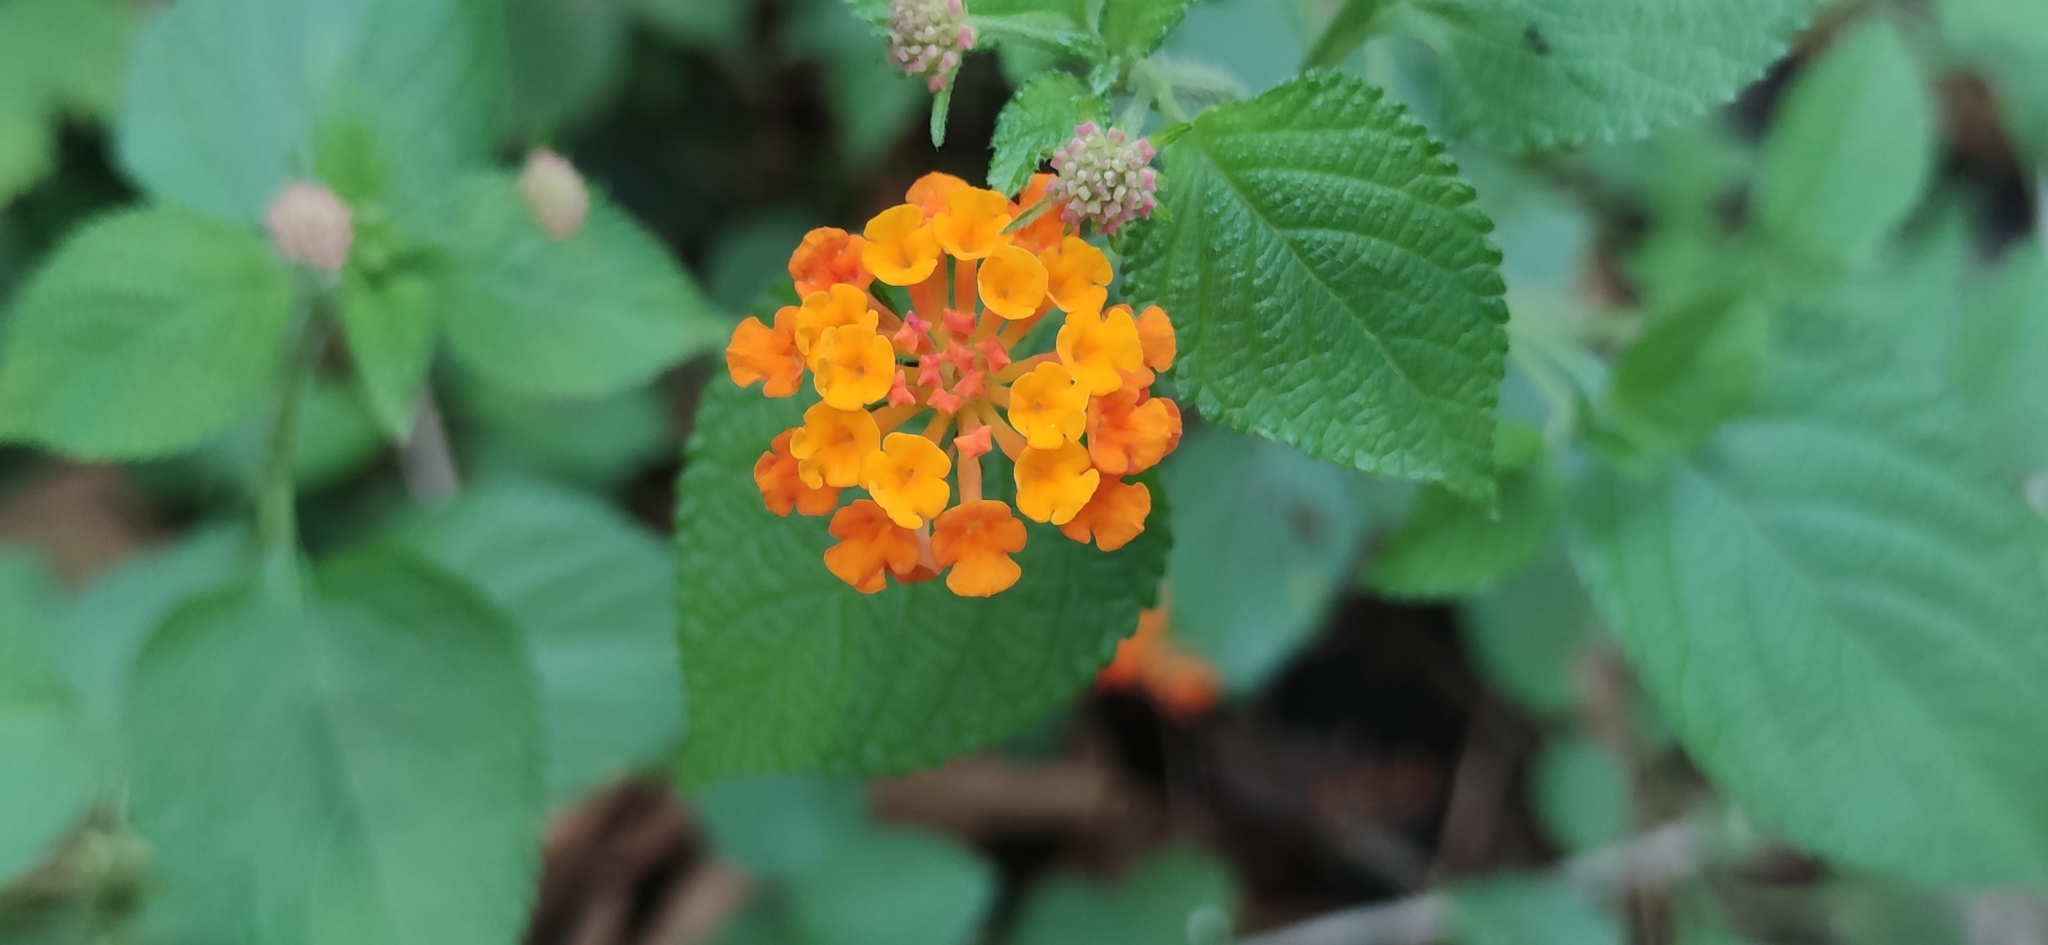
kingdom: Plantae
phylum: Tracheophyta
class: Magnoliopsida
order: Lamiales
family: Verbenaceae
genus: Lantana
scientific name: Lantana camara
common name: Lantana
